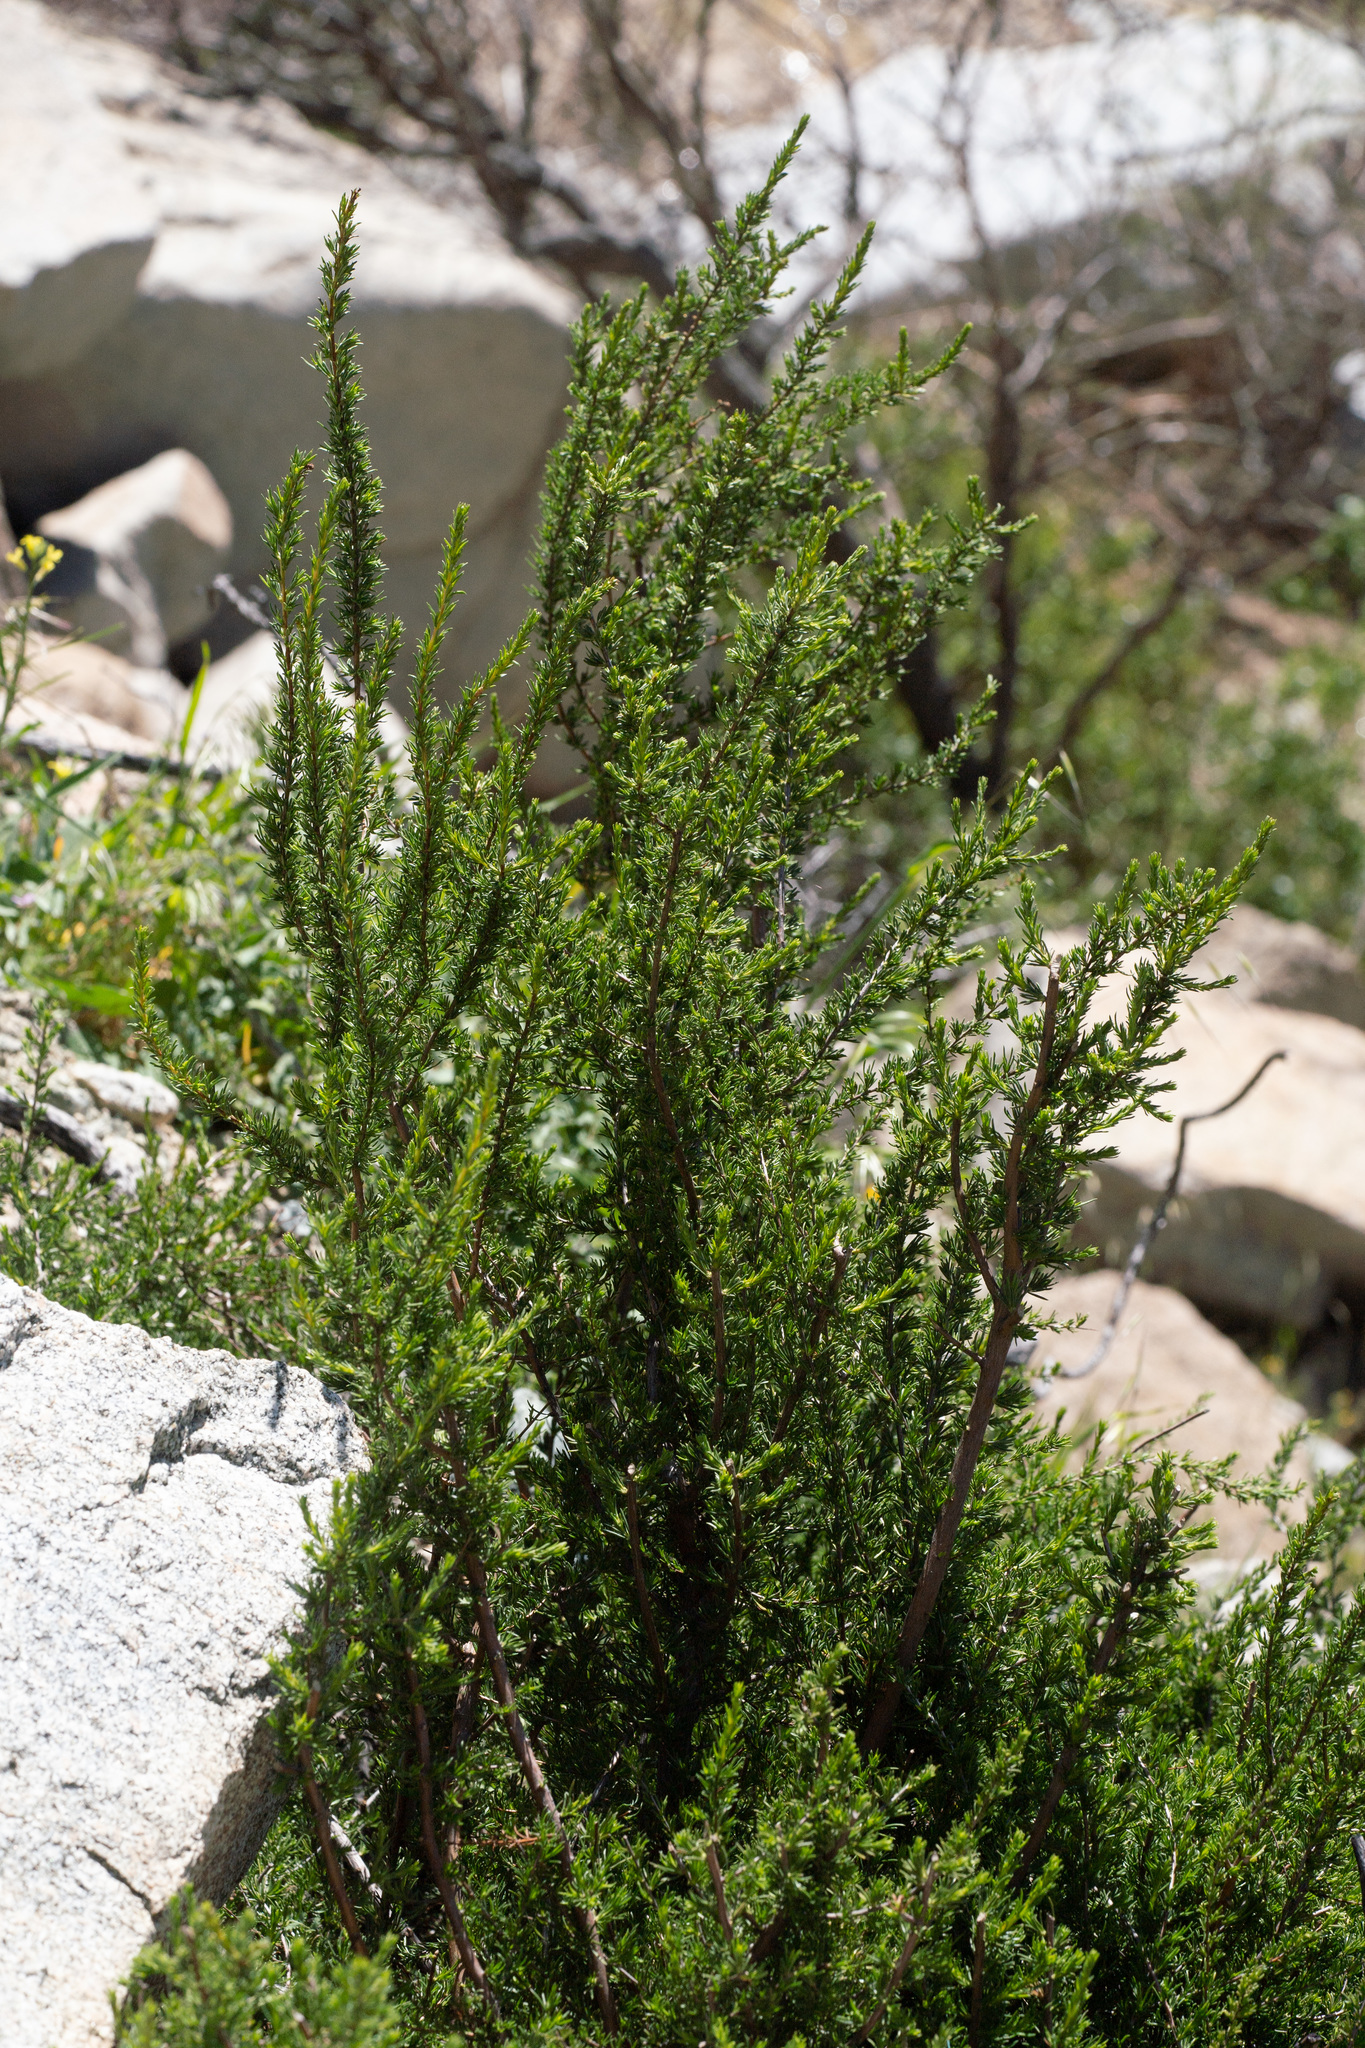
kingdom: Plantae
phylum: Tracheophyta
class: Magnoliopsida
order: Rosales
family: Rosaceae
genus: Adenostoma
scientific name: Adenostoma fasciculatum
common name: Chamise
